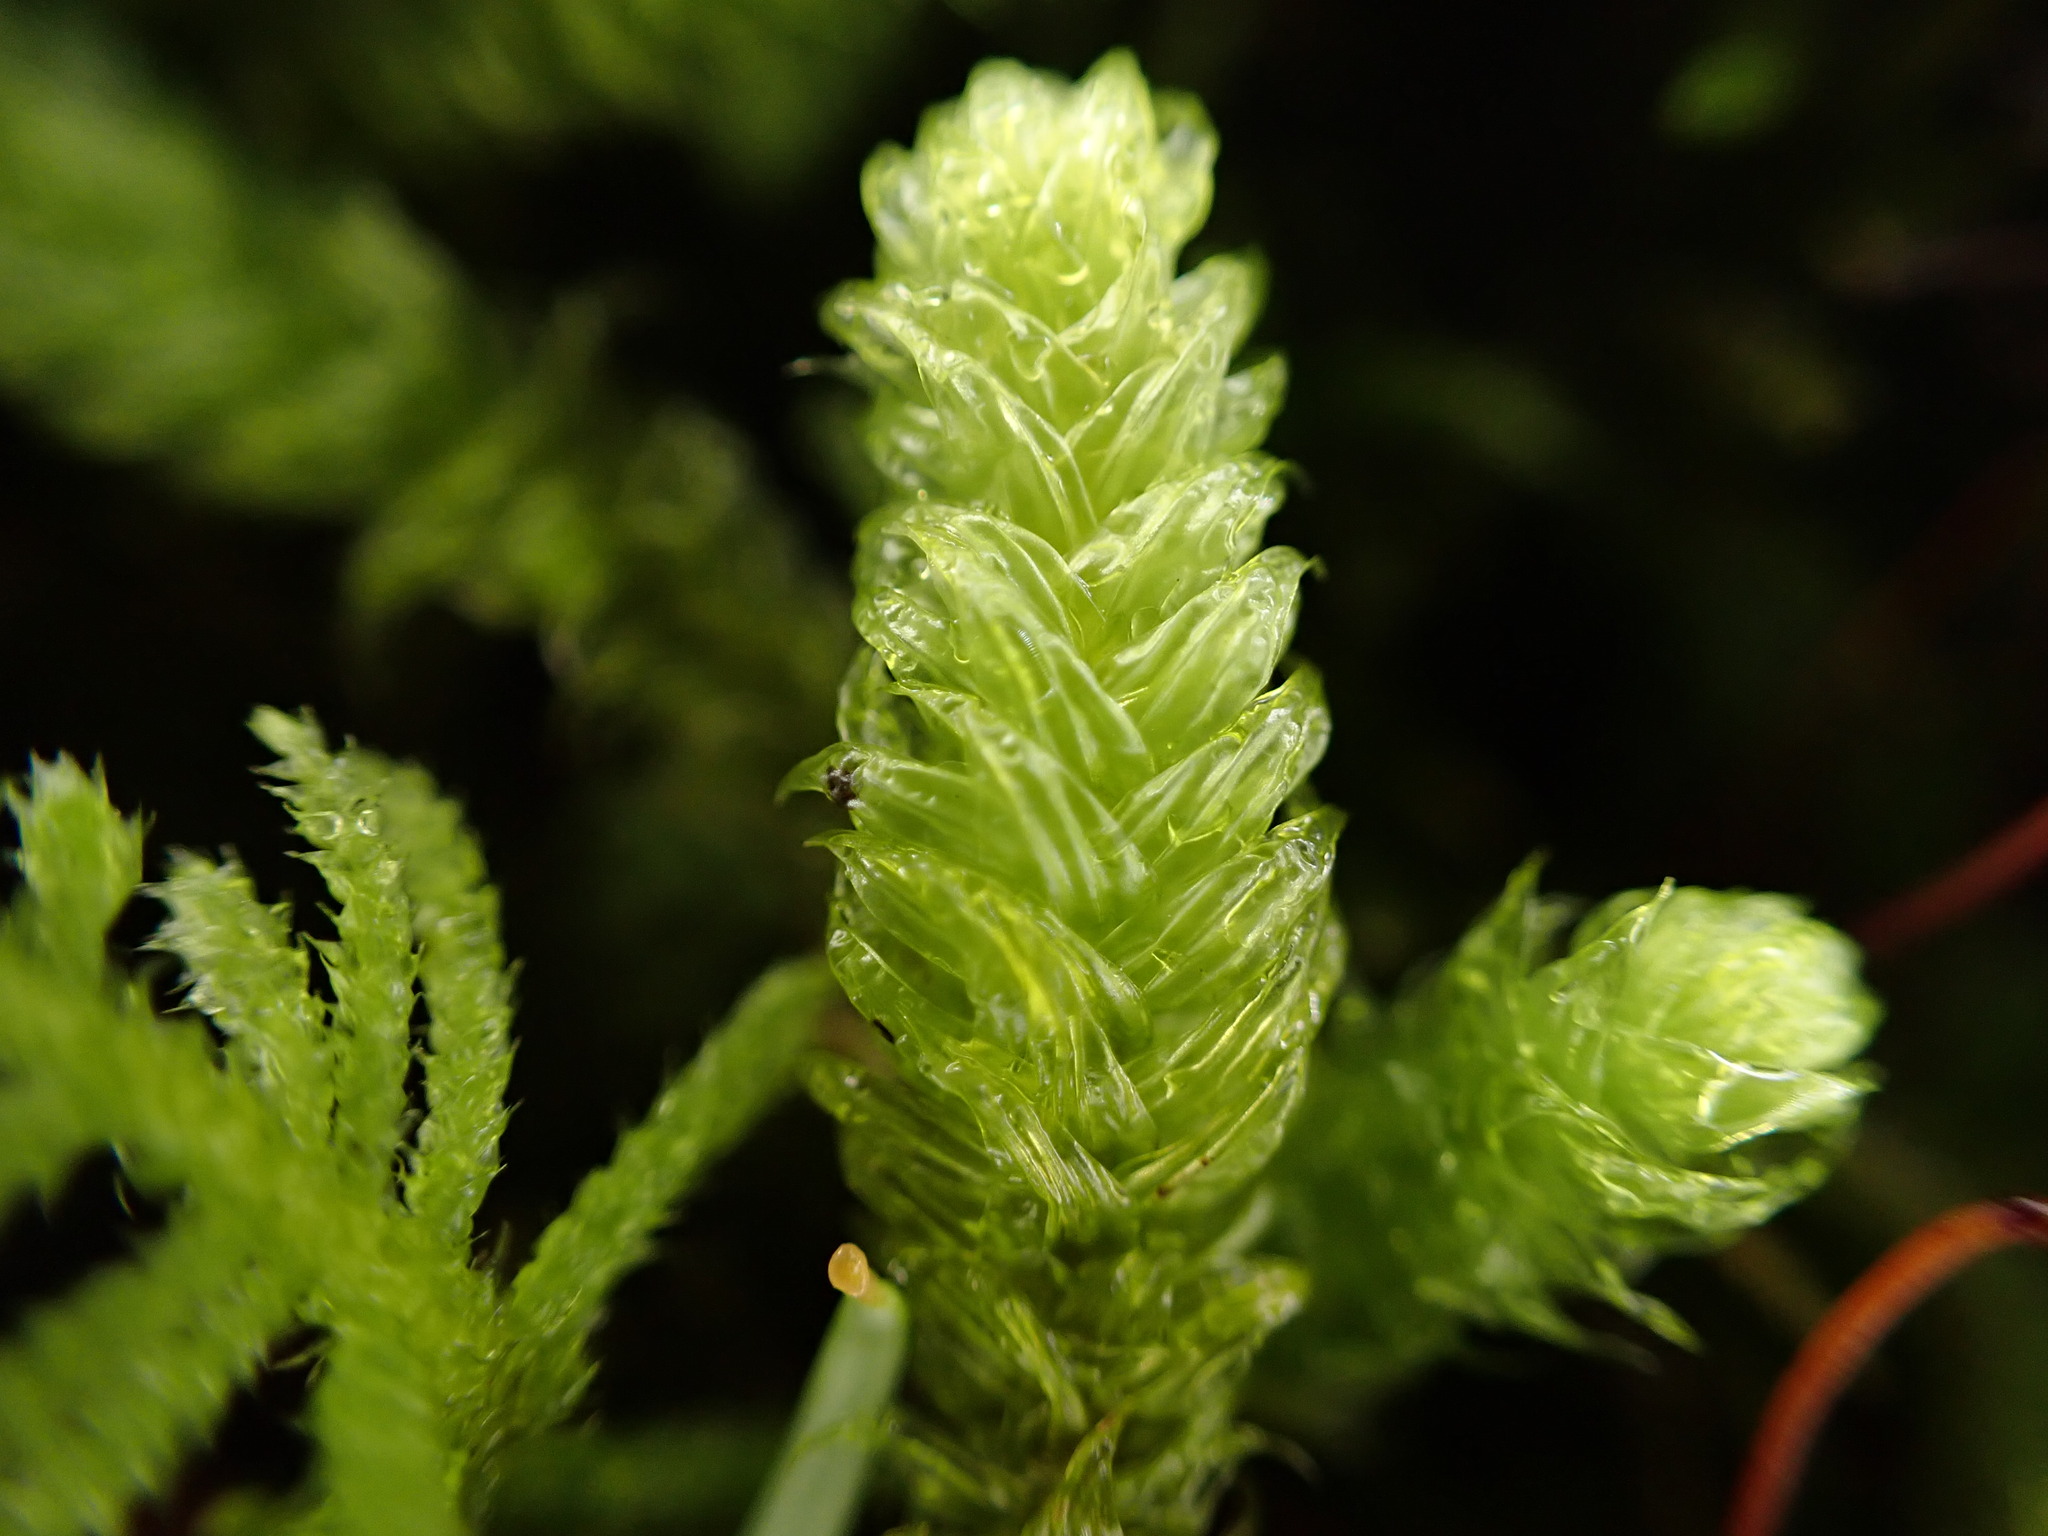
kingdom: Plantae
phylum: Bryophyta
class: Bryopsida
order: Hypnales
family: Hylocomiaceae
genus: Rhytidiopsis
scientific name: Rhytidiopsis robusta
